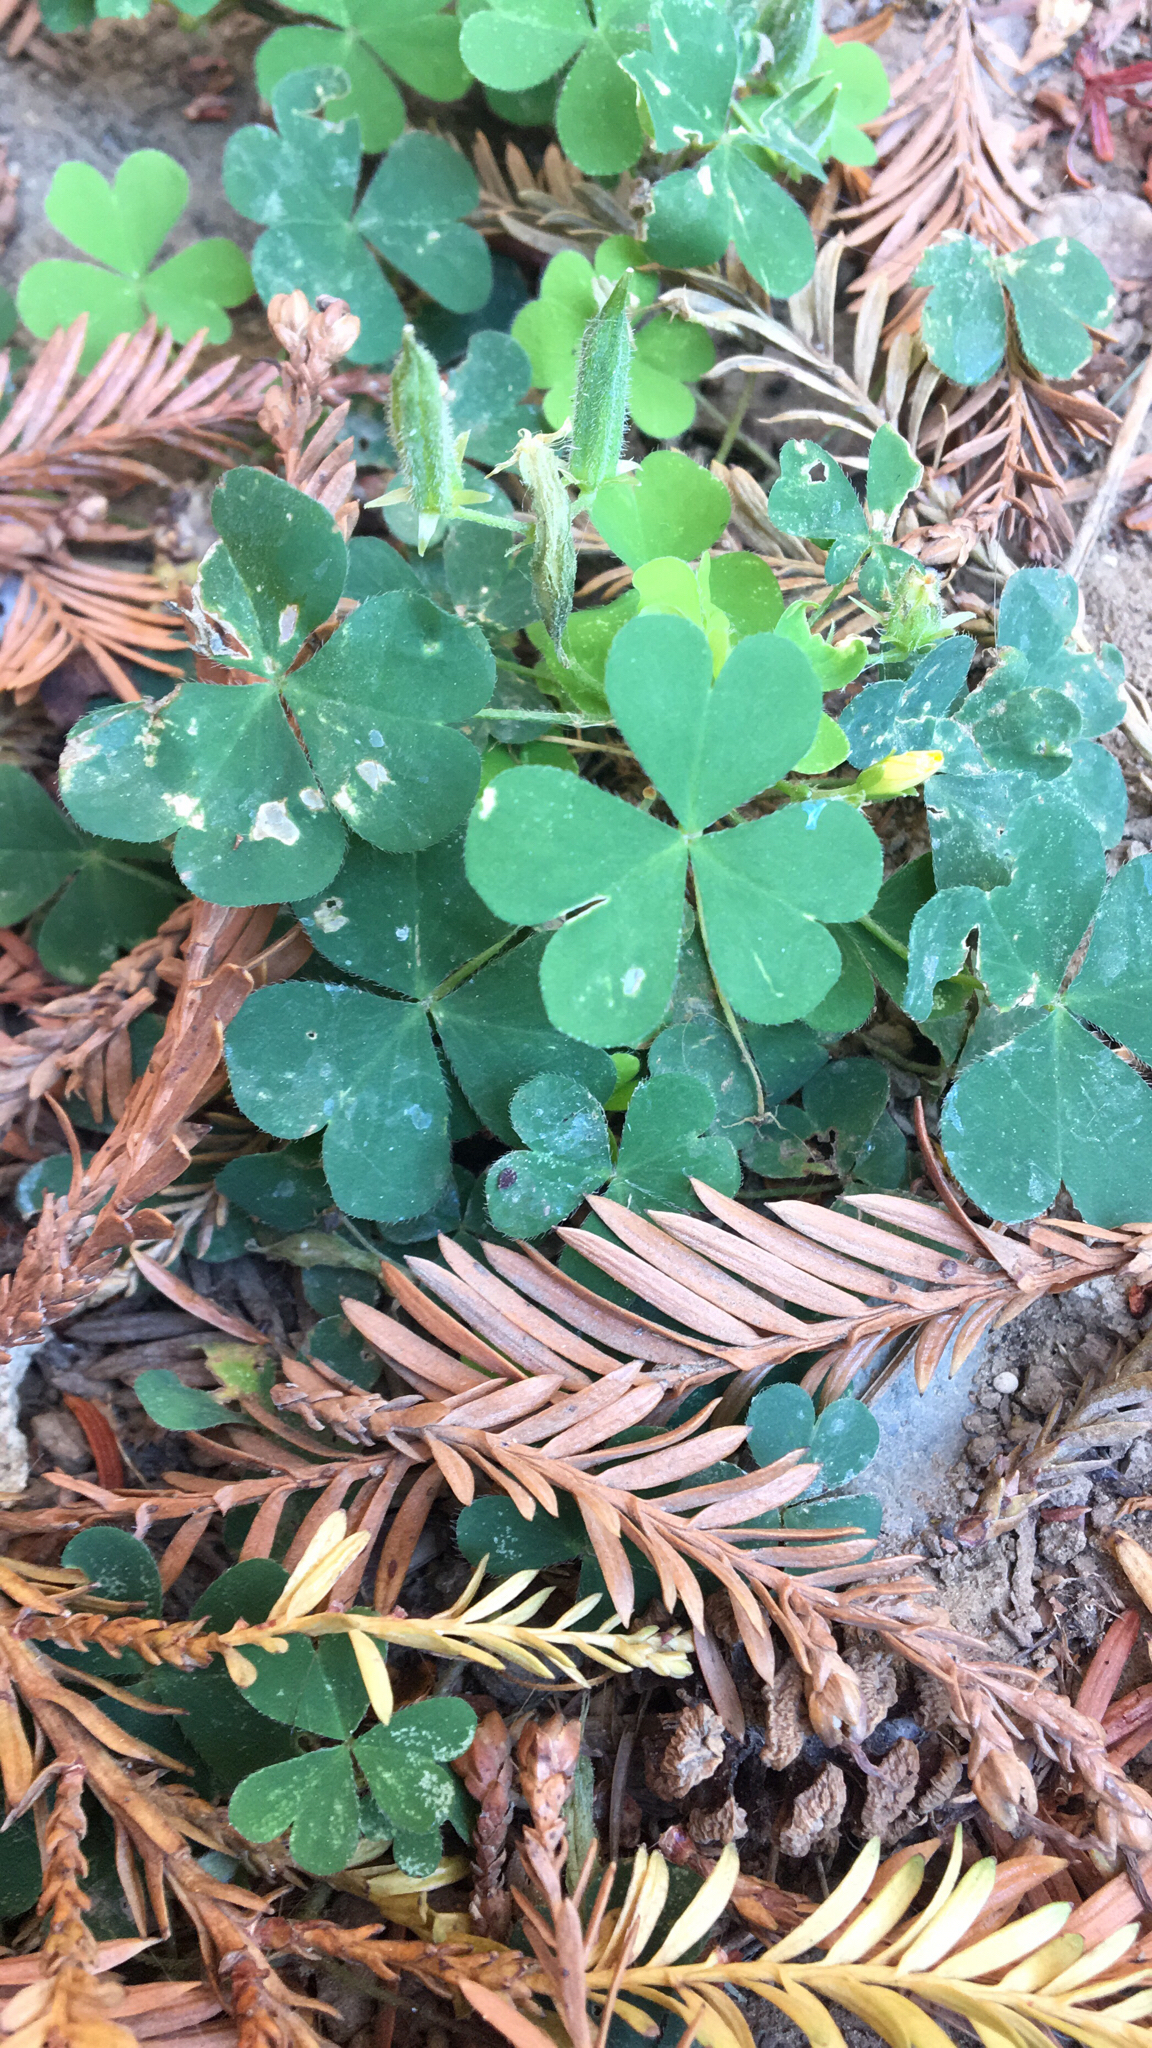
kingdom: Plantae
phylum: Tracheophyta
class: Magnoliopsida
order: Oxalidales
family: Oxalidaceae
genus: Oxalis
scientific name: Oxalis corniculata
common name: Procumbent yellow-sorrel
